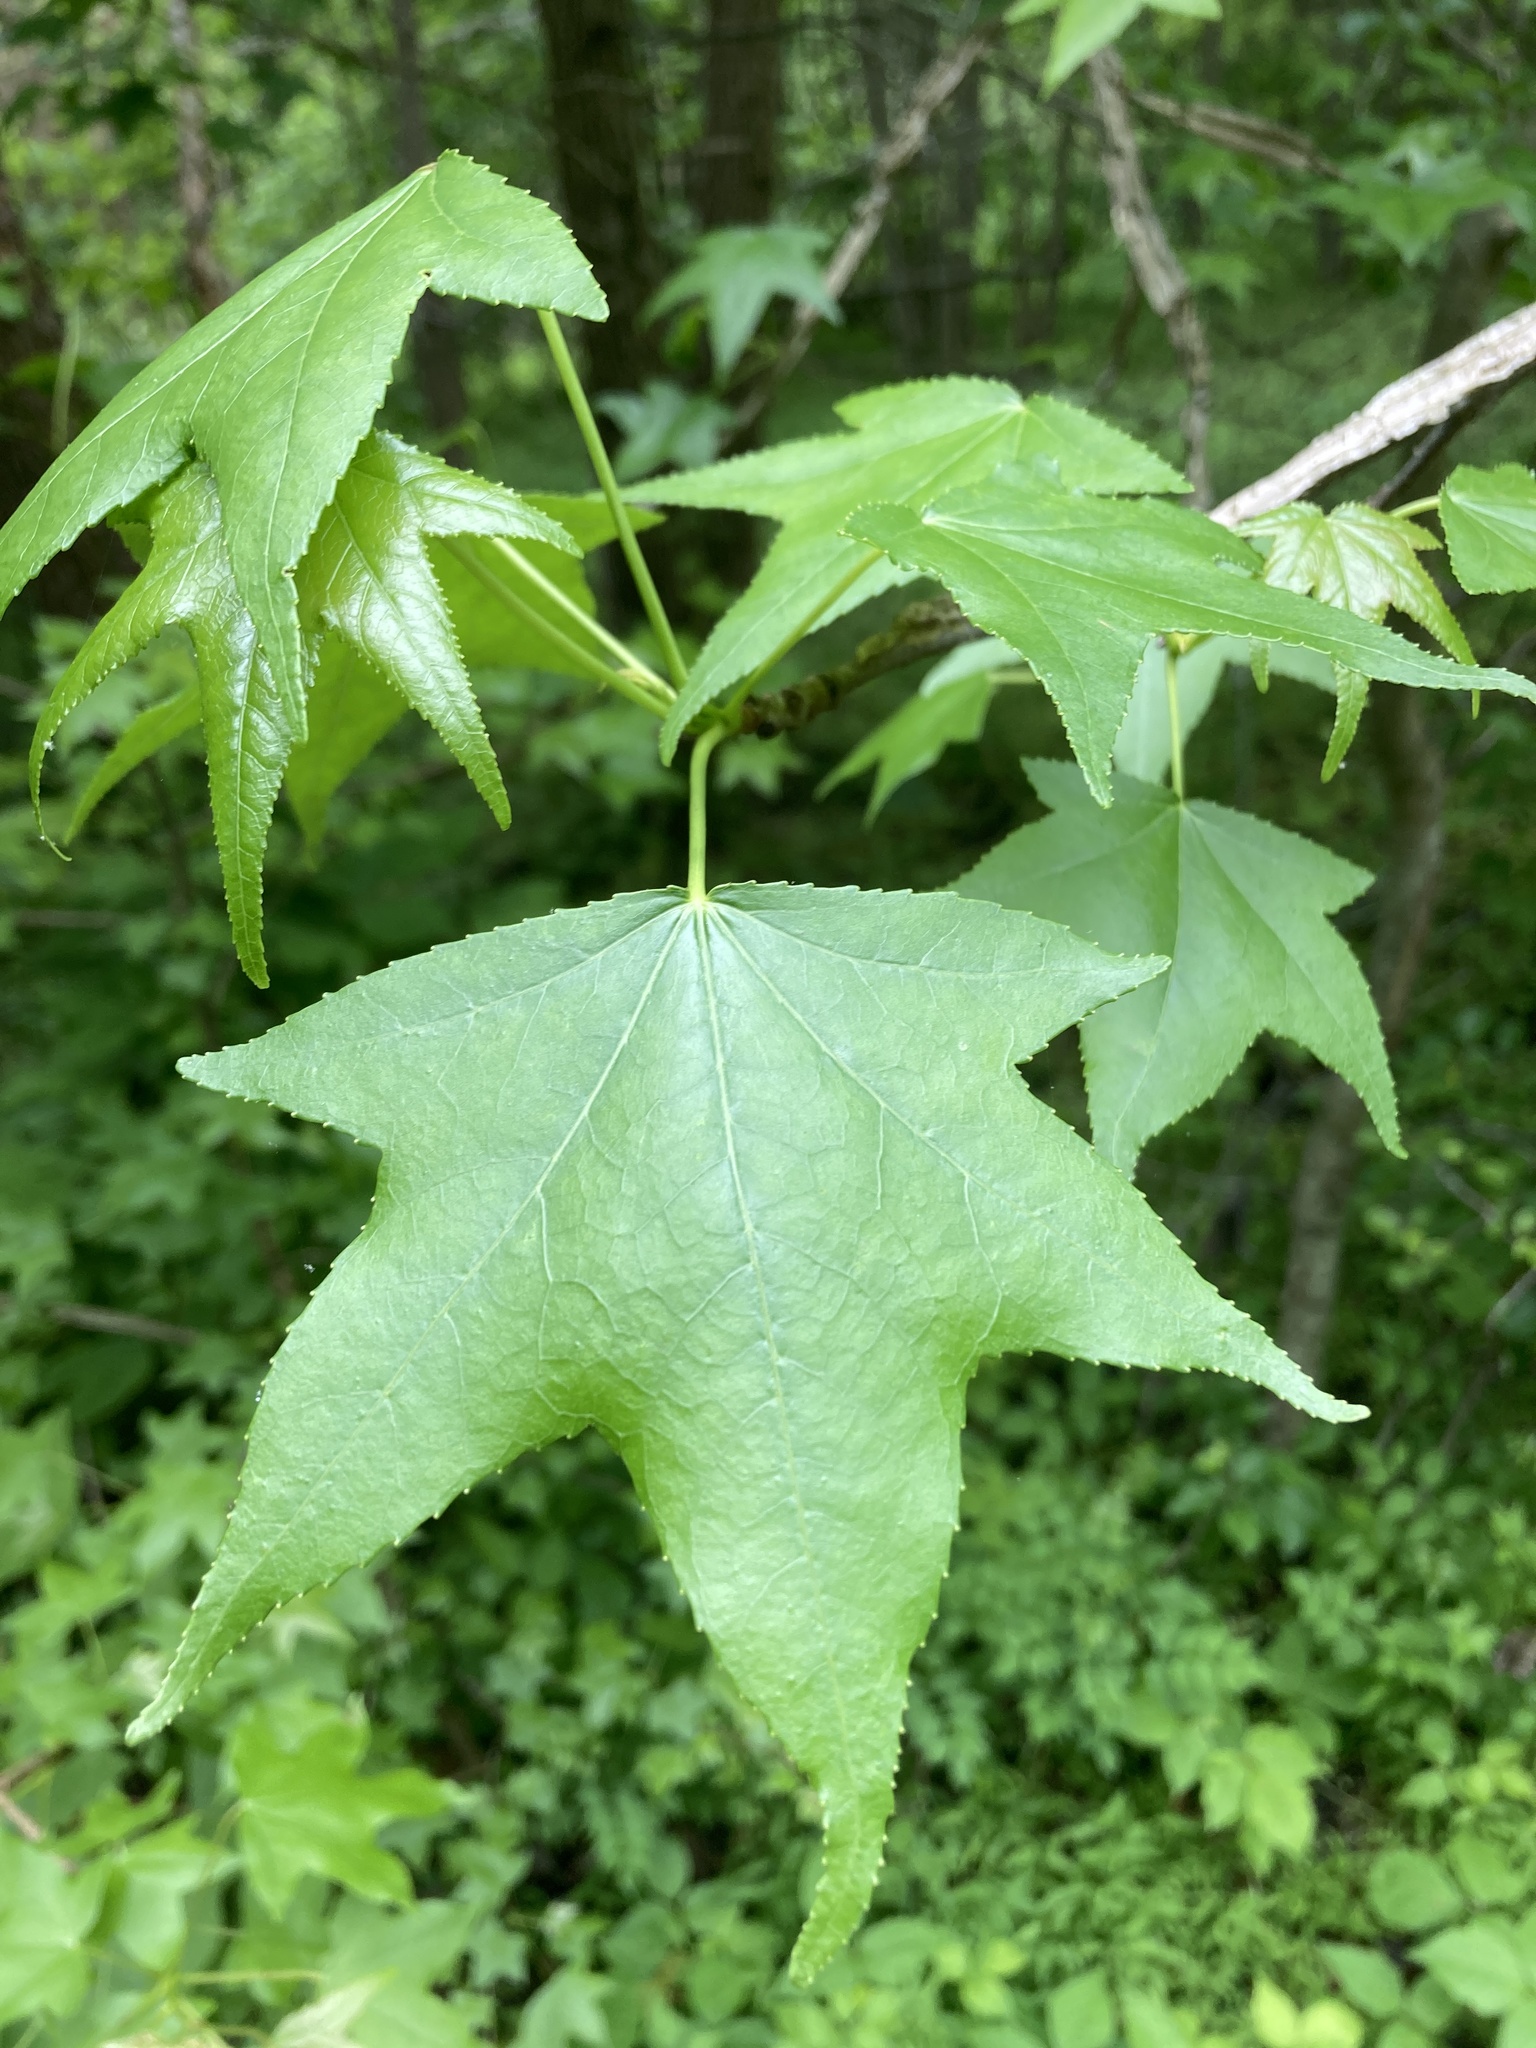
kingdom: Plantae
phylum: Tracheophyta
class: Magnoliopsida
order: Saxifragales
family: Altingiaceae
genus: Liquidambar
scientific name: Liquidambar styraciflua
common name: Sweet gum
